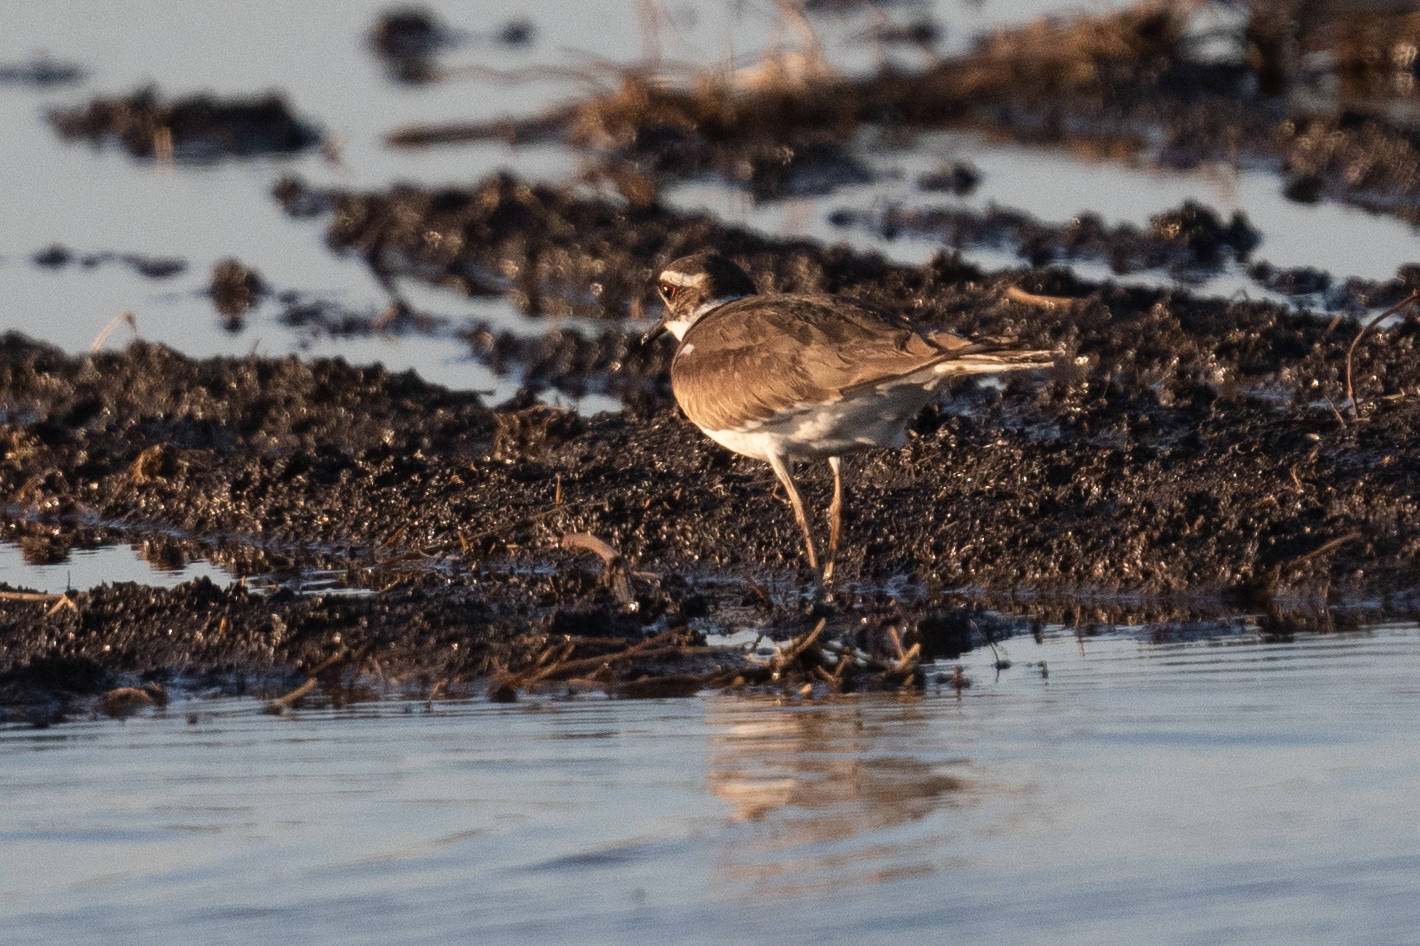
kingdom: Animalia
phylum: Chordata
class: Aves
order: Charadriiformes
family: Charadriidae
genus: Charadrius
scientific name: Charadrius vociferus
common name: Killdeer
